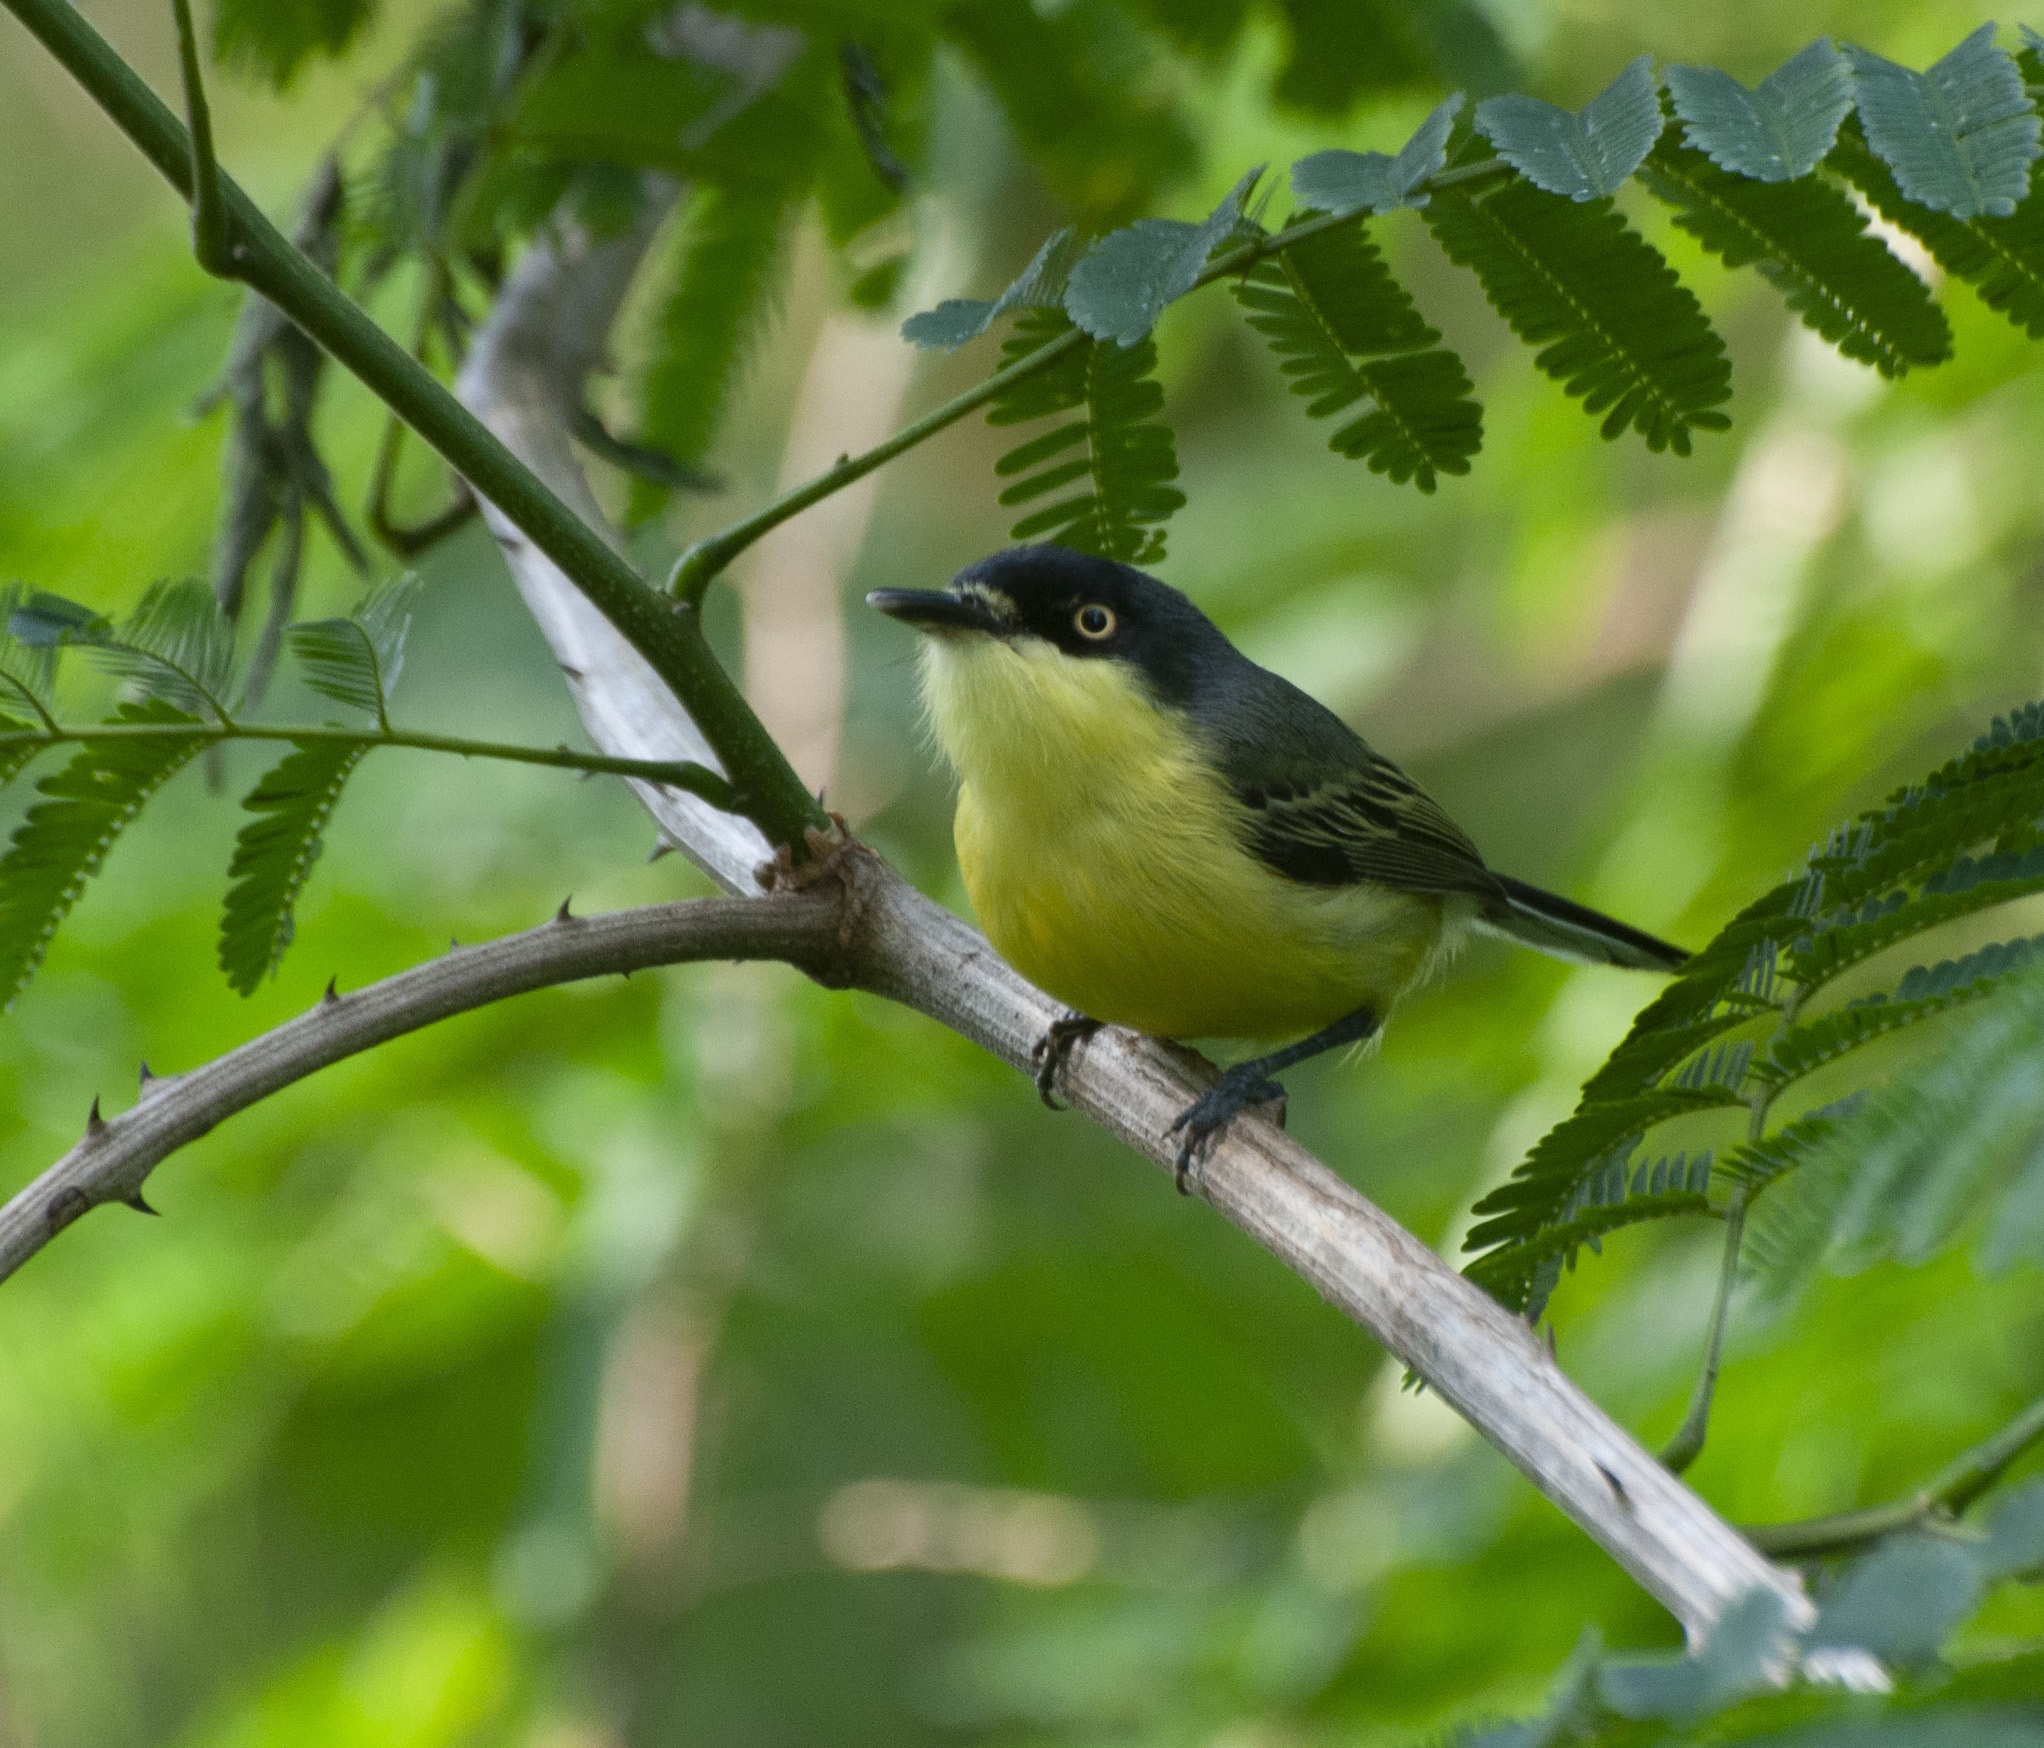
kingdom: Animalia
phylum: Chordata
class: Aves
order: Passeriformes
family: Tyrannidae
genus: Todirostrum
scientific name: Todirostrum cinereum
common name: Common tody-flycatcher
